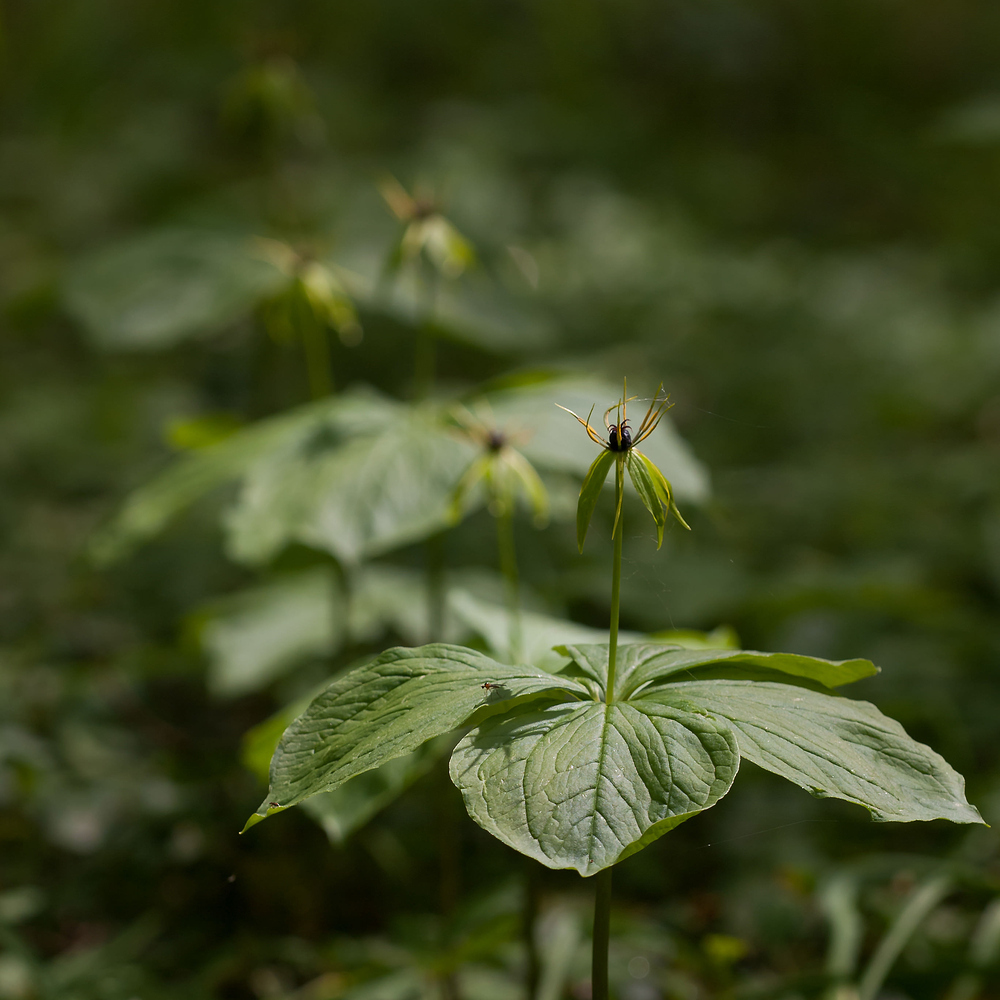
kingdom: Plantae
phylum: Tracheophyta
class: Liliopsida
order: Liliales
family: Melanthiaceae
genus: Paris
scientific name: Paris quadrifolia
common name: Herb-paris
